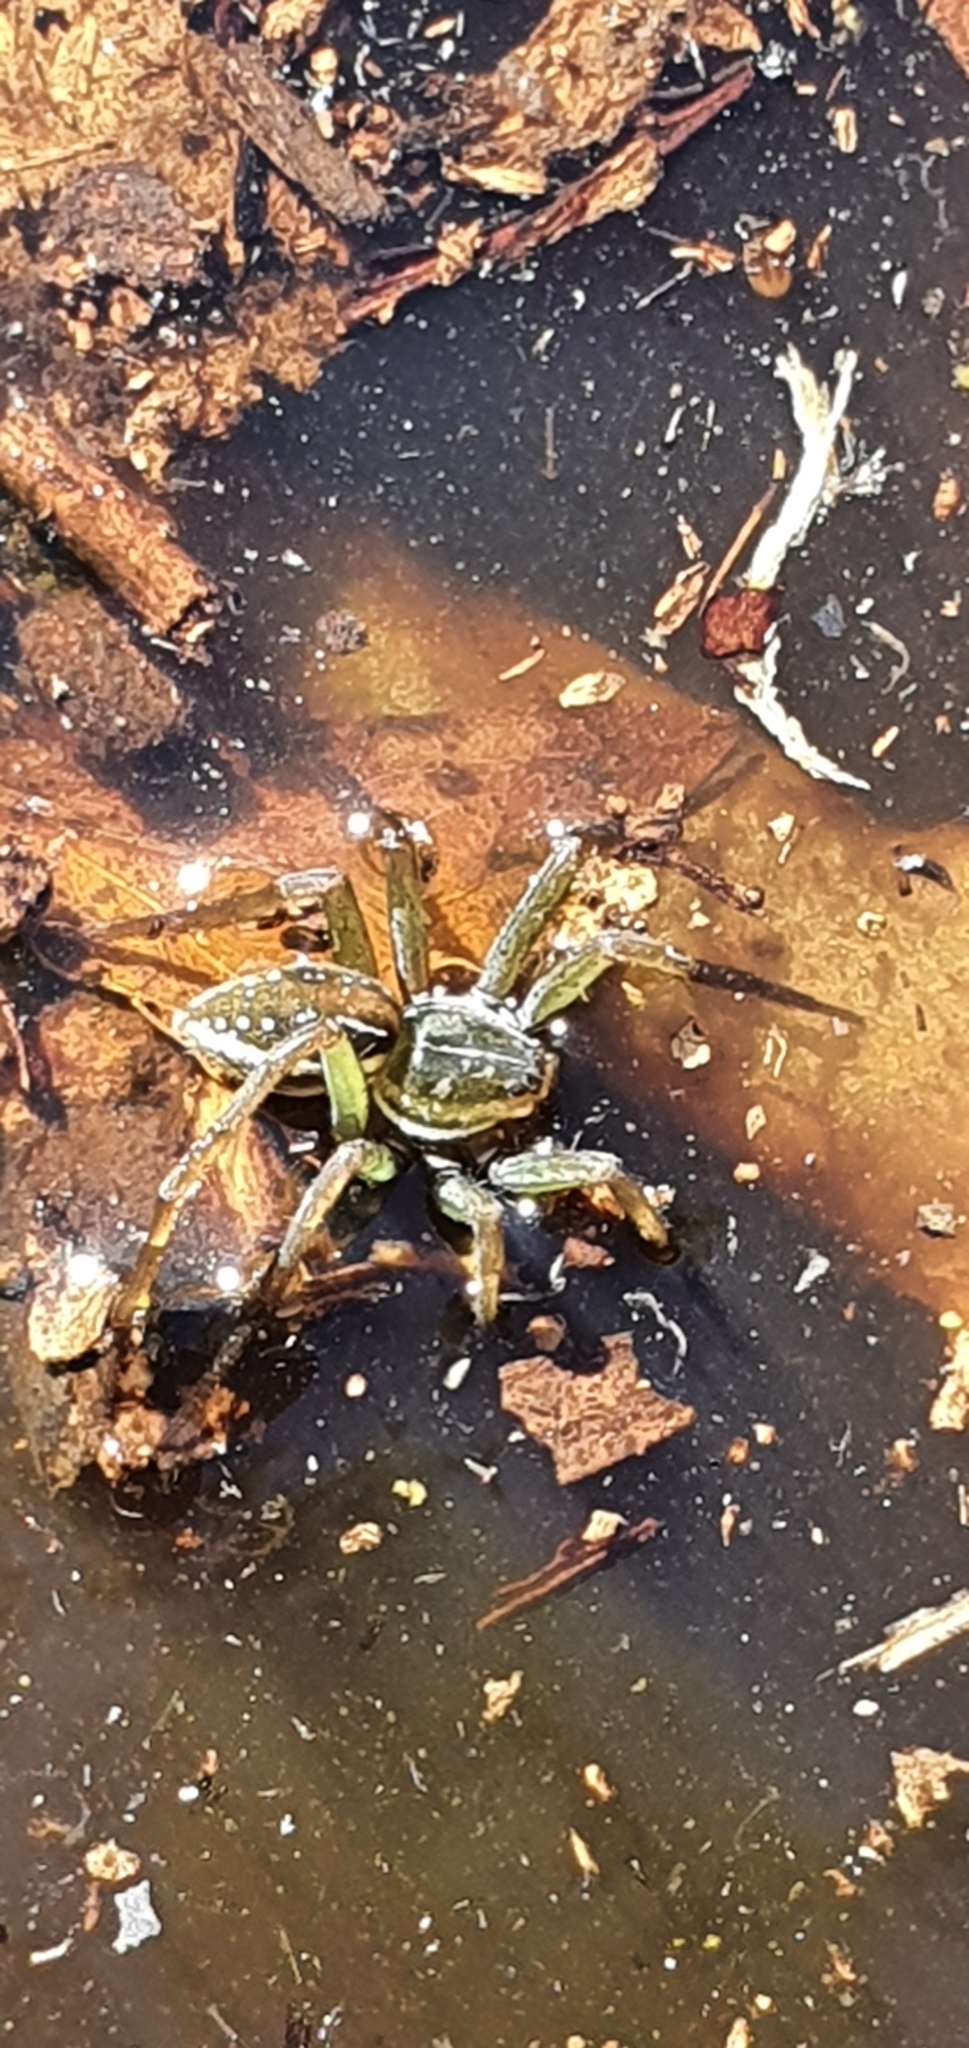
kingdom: Animalia
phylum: Arthropoda
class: Arachnida
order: Araneae
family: Pisauridae
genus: Dolomedes
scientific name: Dolomedes facetus
